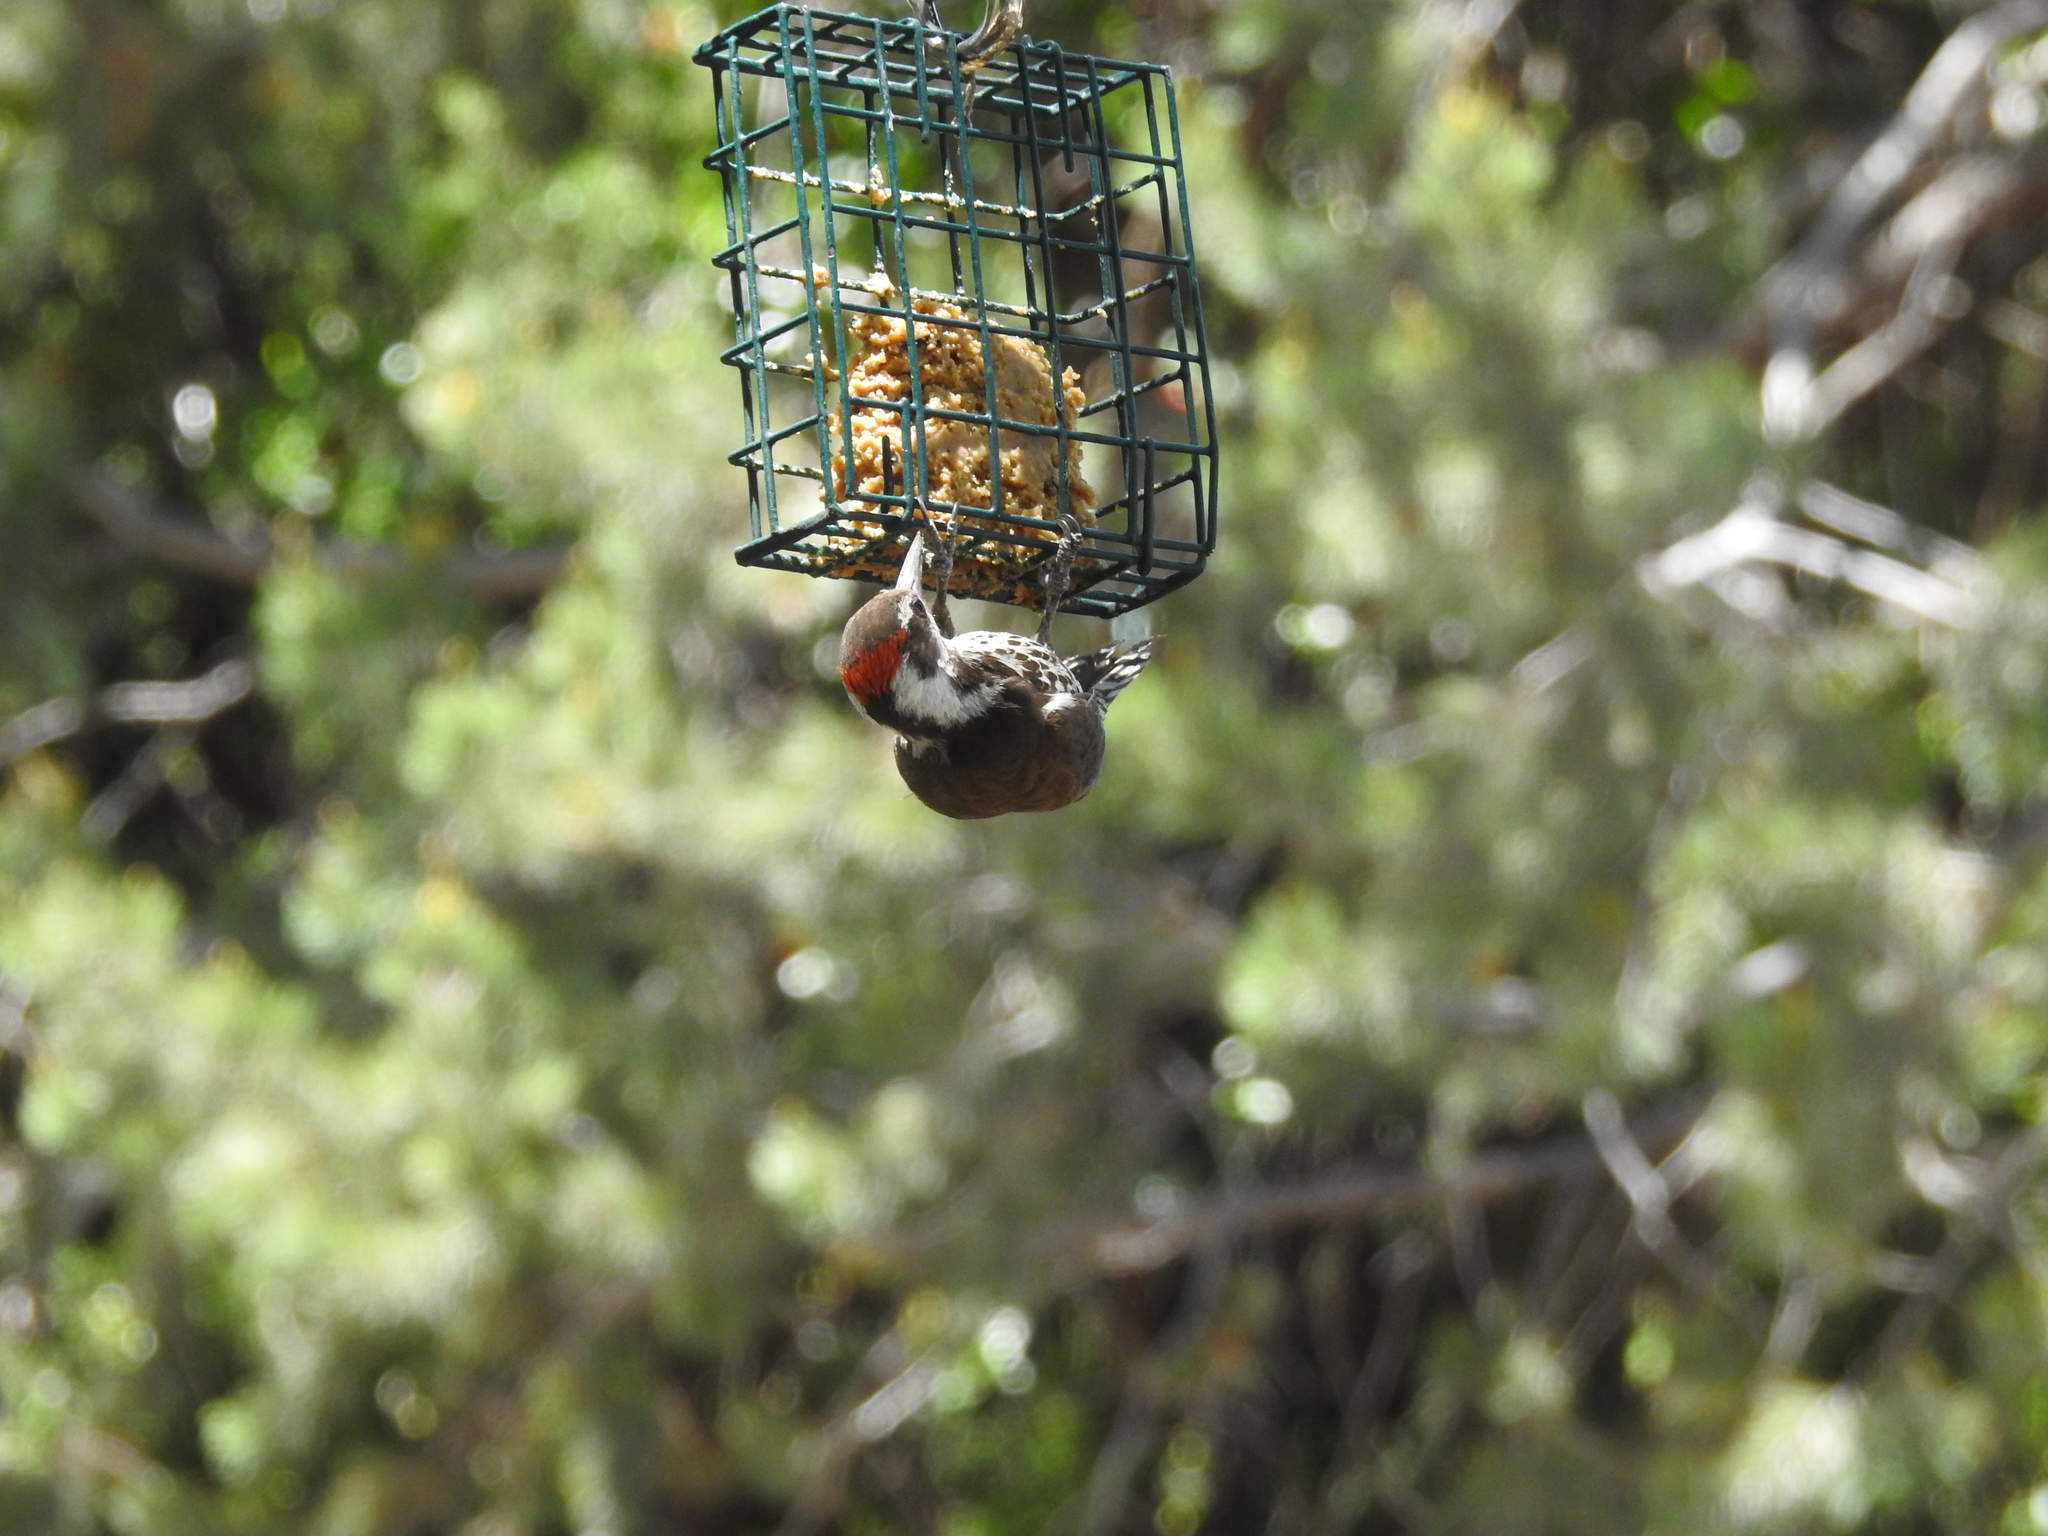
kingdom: Animalia
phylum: Chordata
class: Aves
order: Piciformes
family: Picidae
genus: Leuconotopicus
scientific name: Leuconotopicus arizonae
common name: Arizona woodpecker
